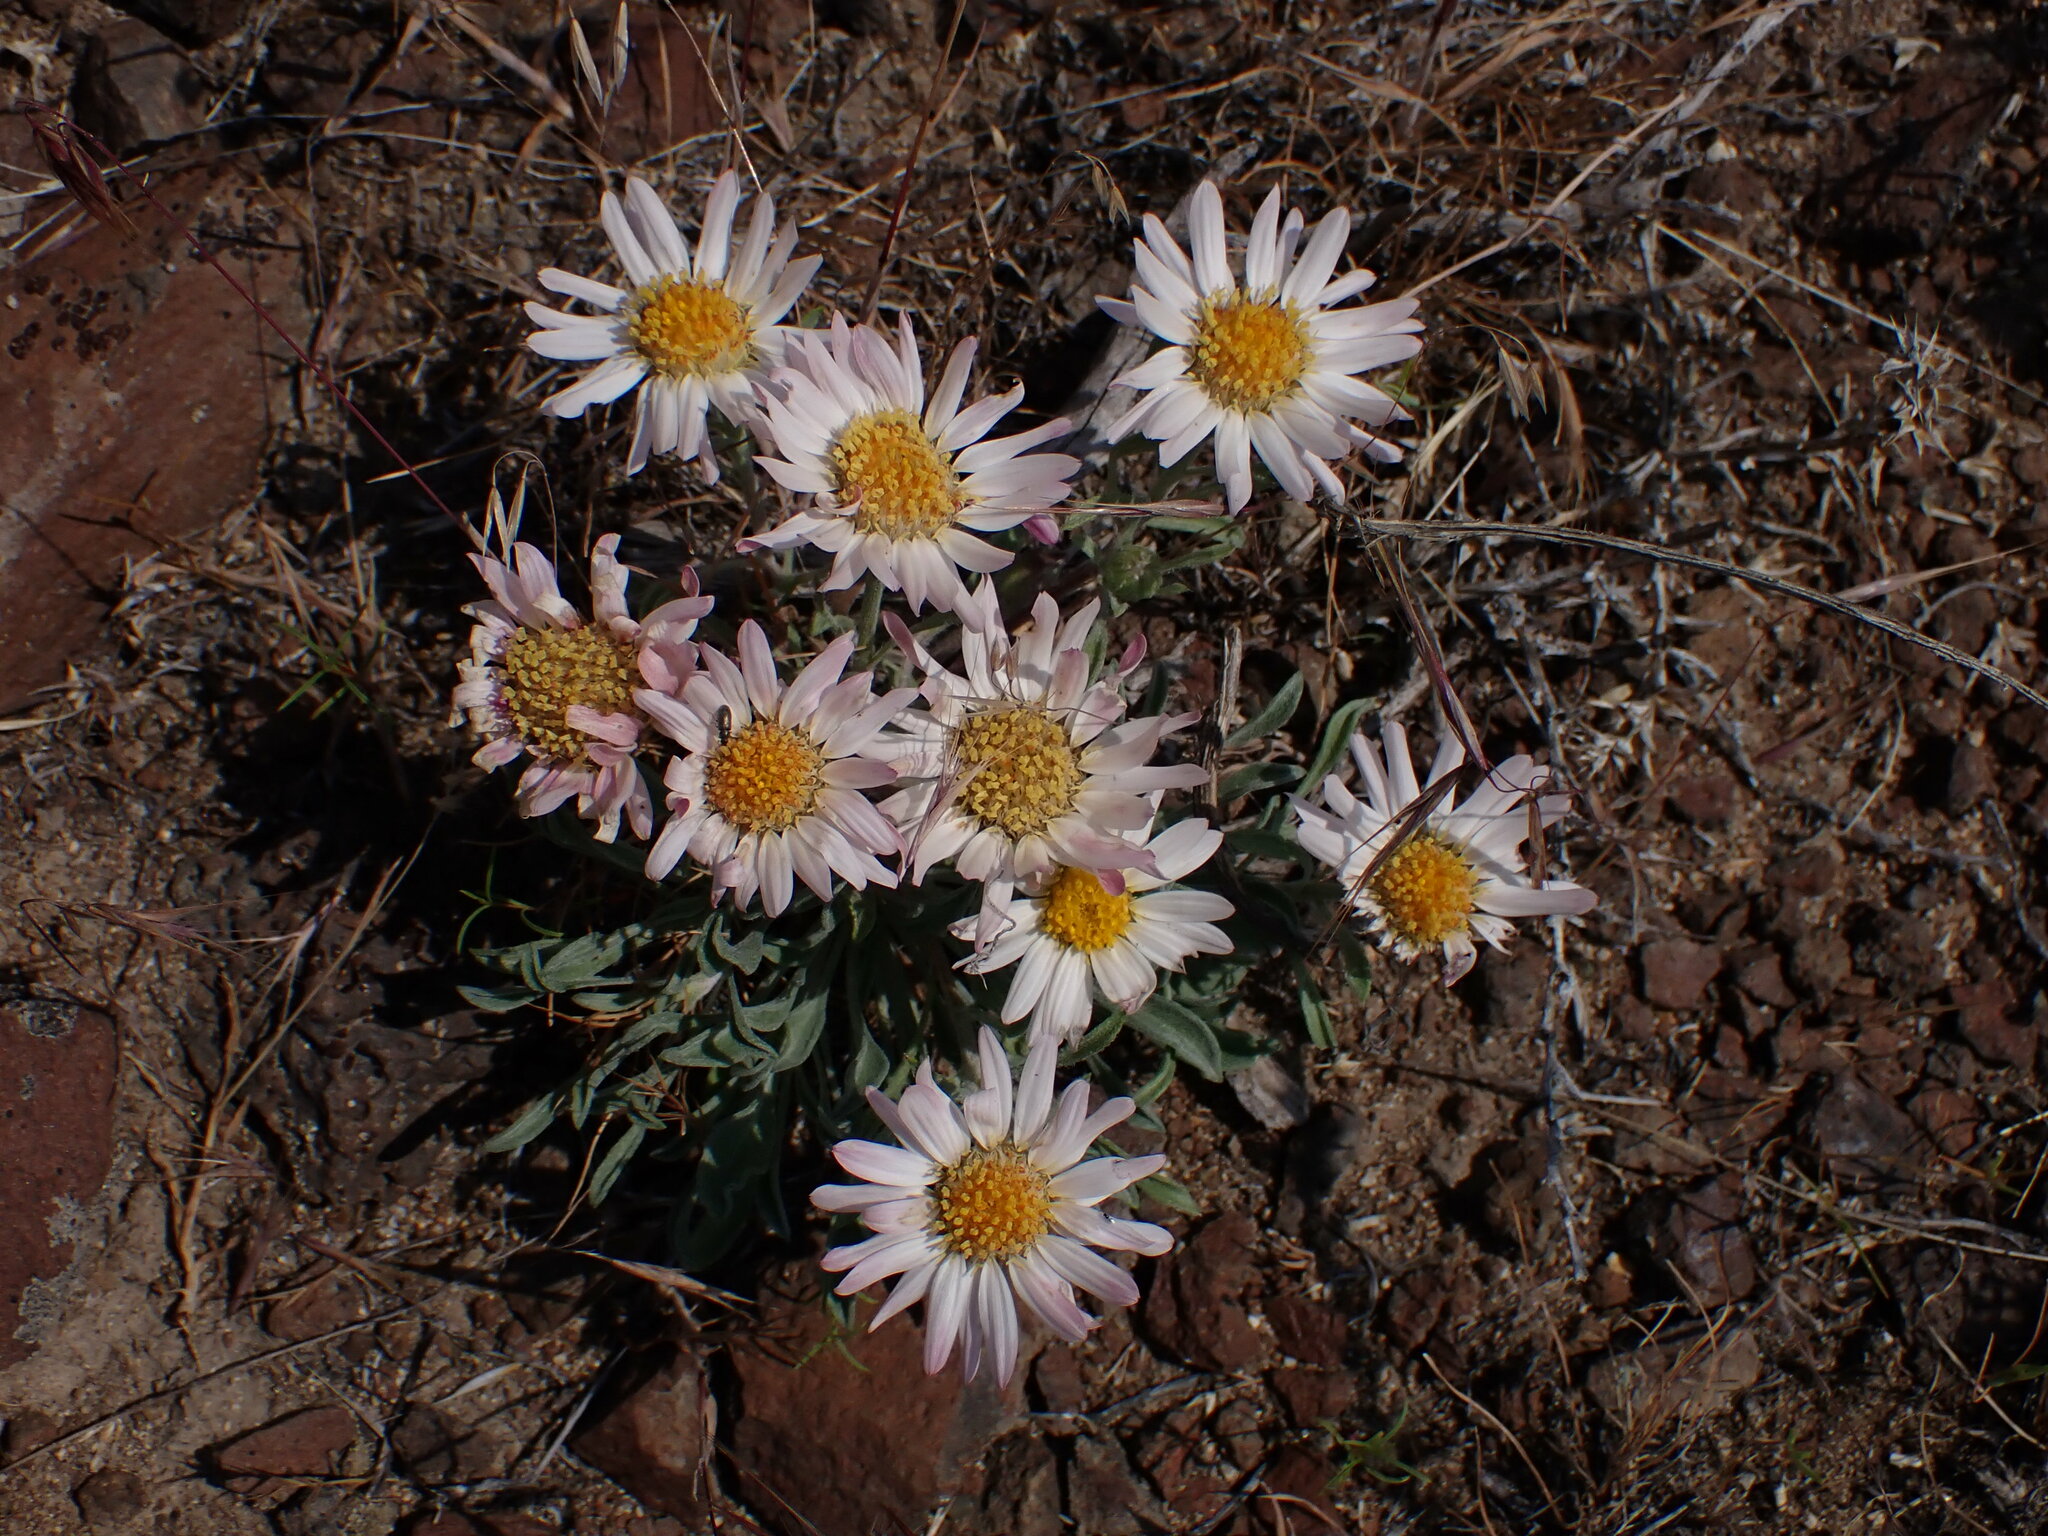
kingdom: Plantae
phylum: Tracheophyta
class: Magnoliopsida
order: Asterales
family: Asteraceae
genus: Townsendia
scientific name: Townsendia florifera
